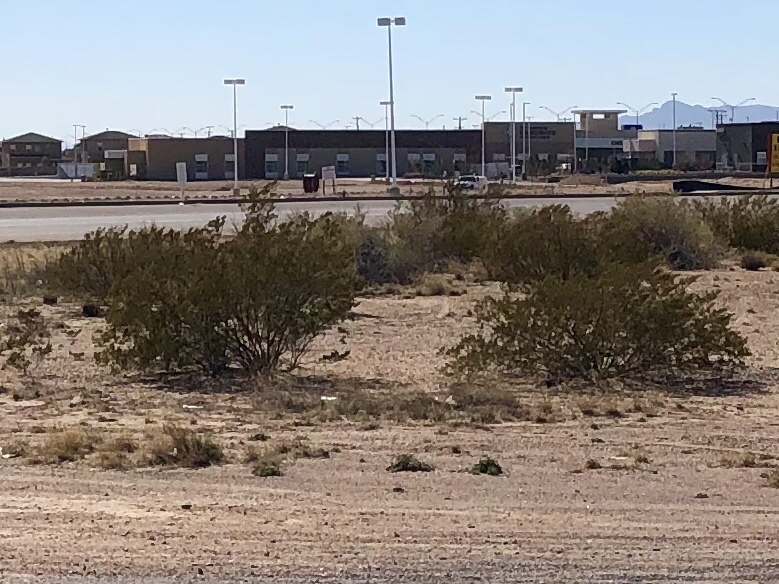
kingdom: Plantae
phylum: Tracheophyta
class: Magnoliopsida
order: Zygophyllales
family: Zygophyllaceae
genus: Larrea
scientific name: Larrea tridentata
